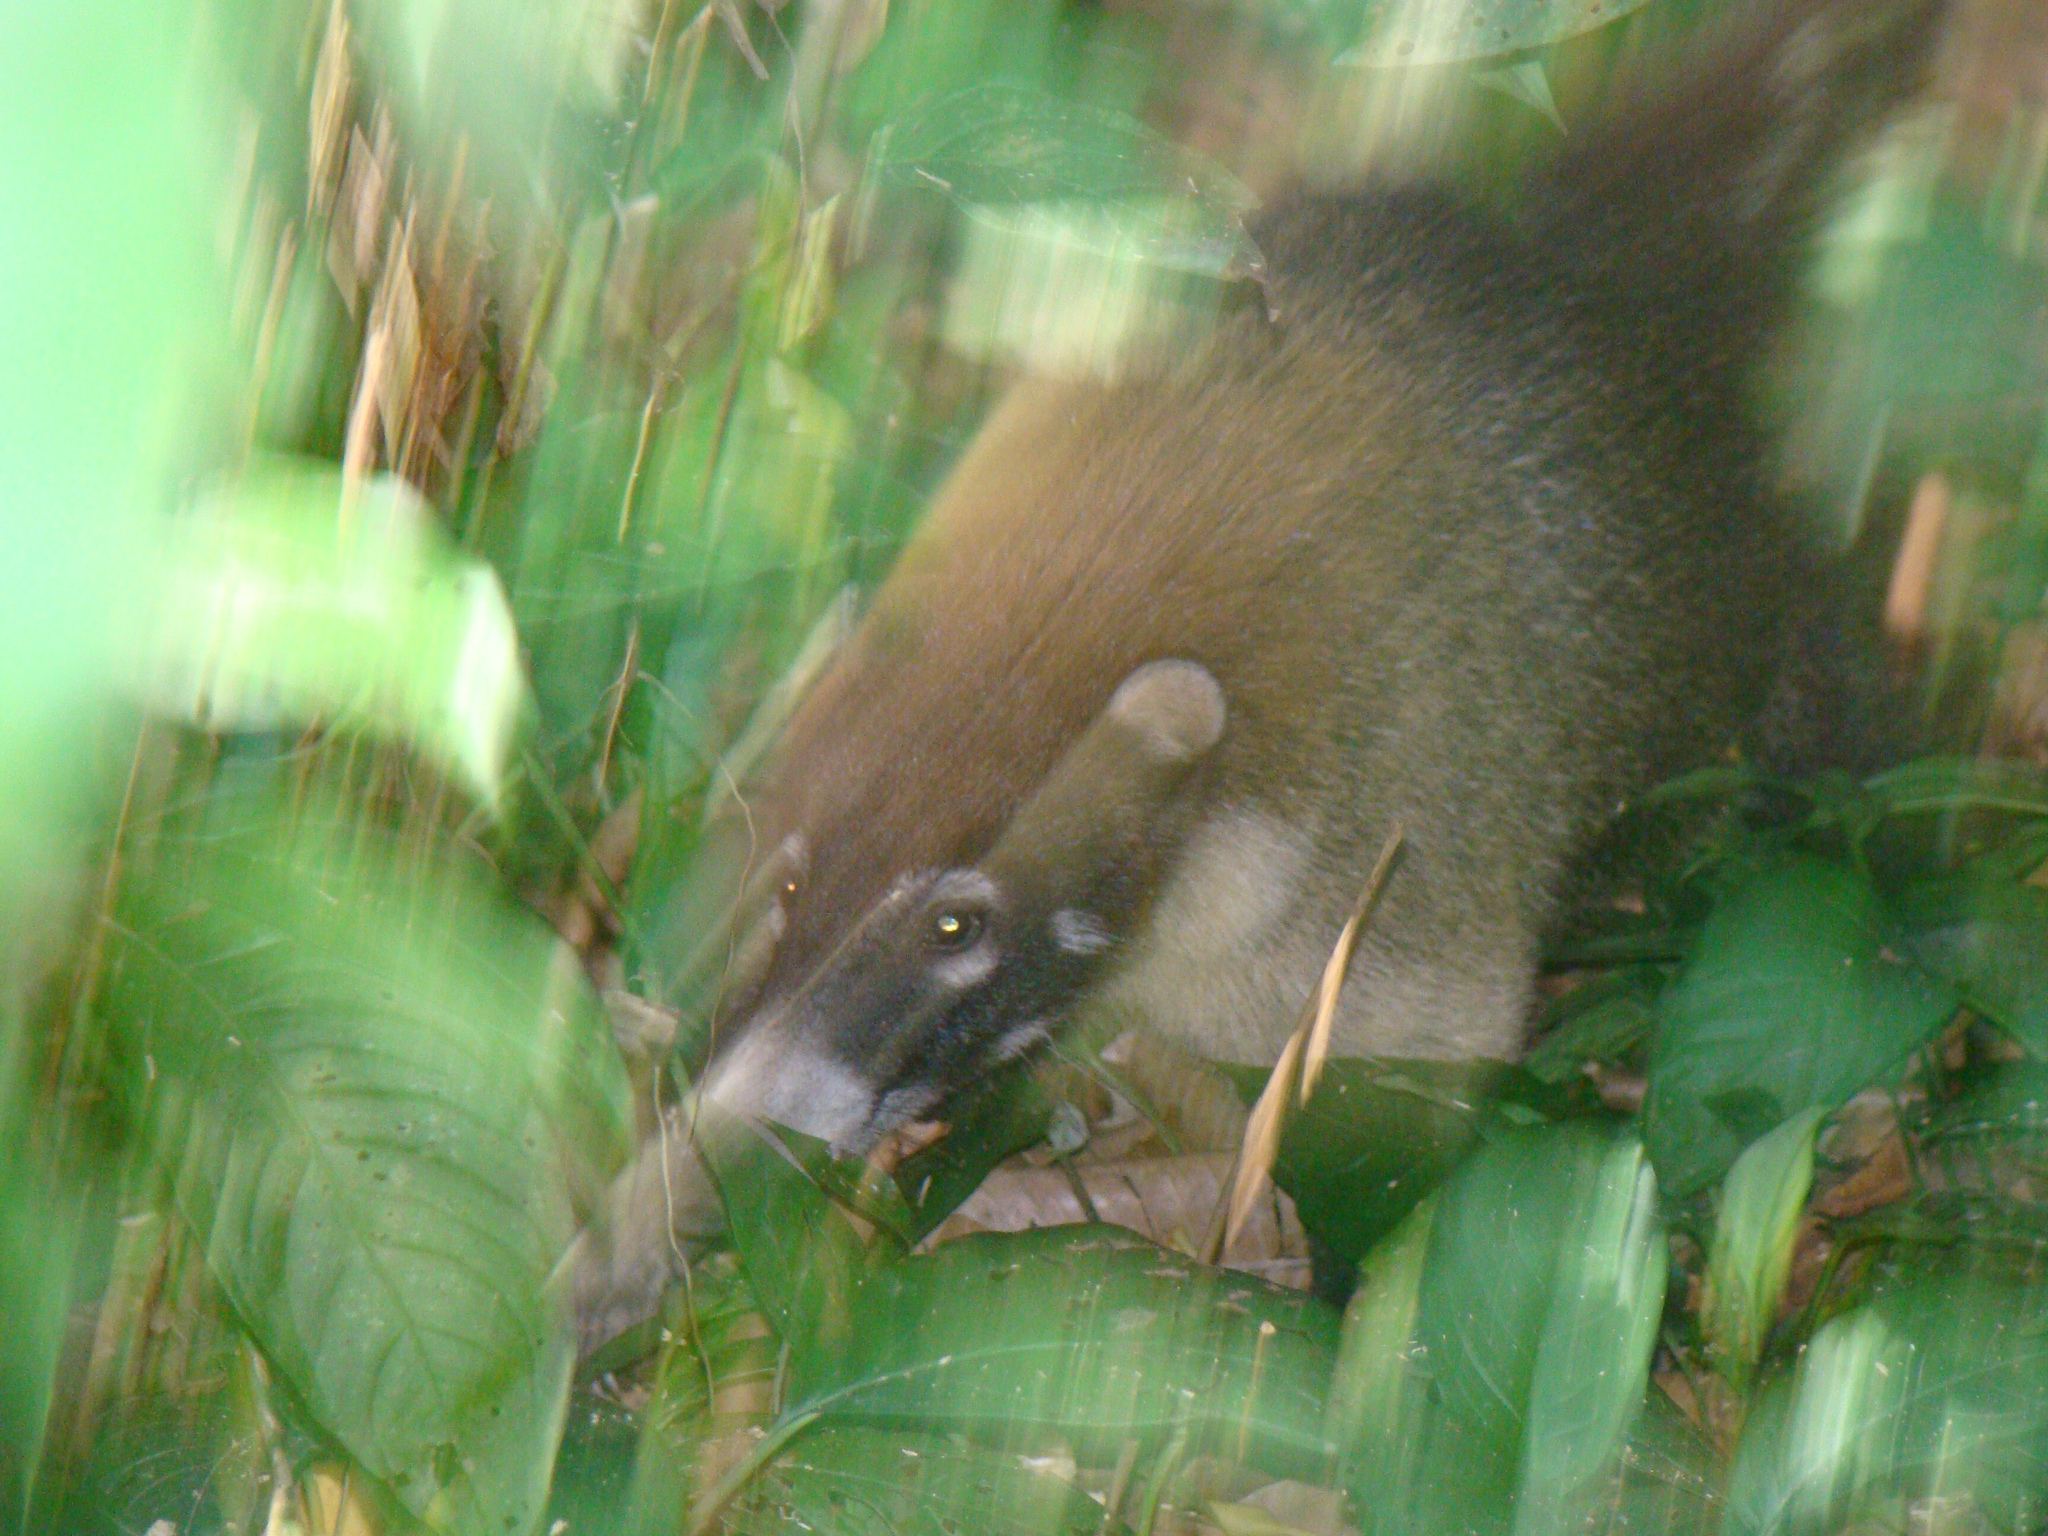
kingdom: Animalia
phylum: Chordata
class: Mammalia
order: Carnivora
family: Procyonidae
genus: Nasua
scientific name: Nasua narica
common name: White-nosed coati
